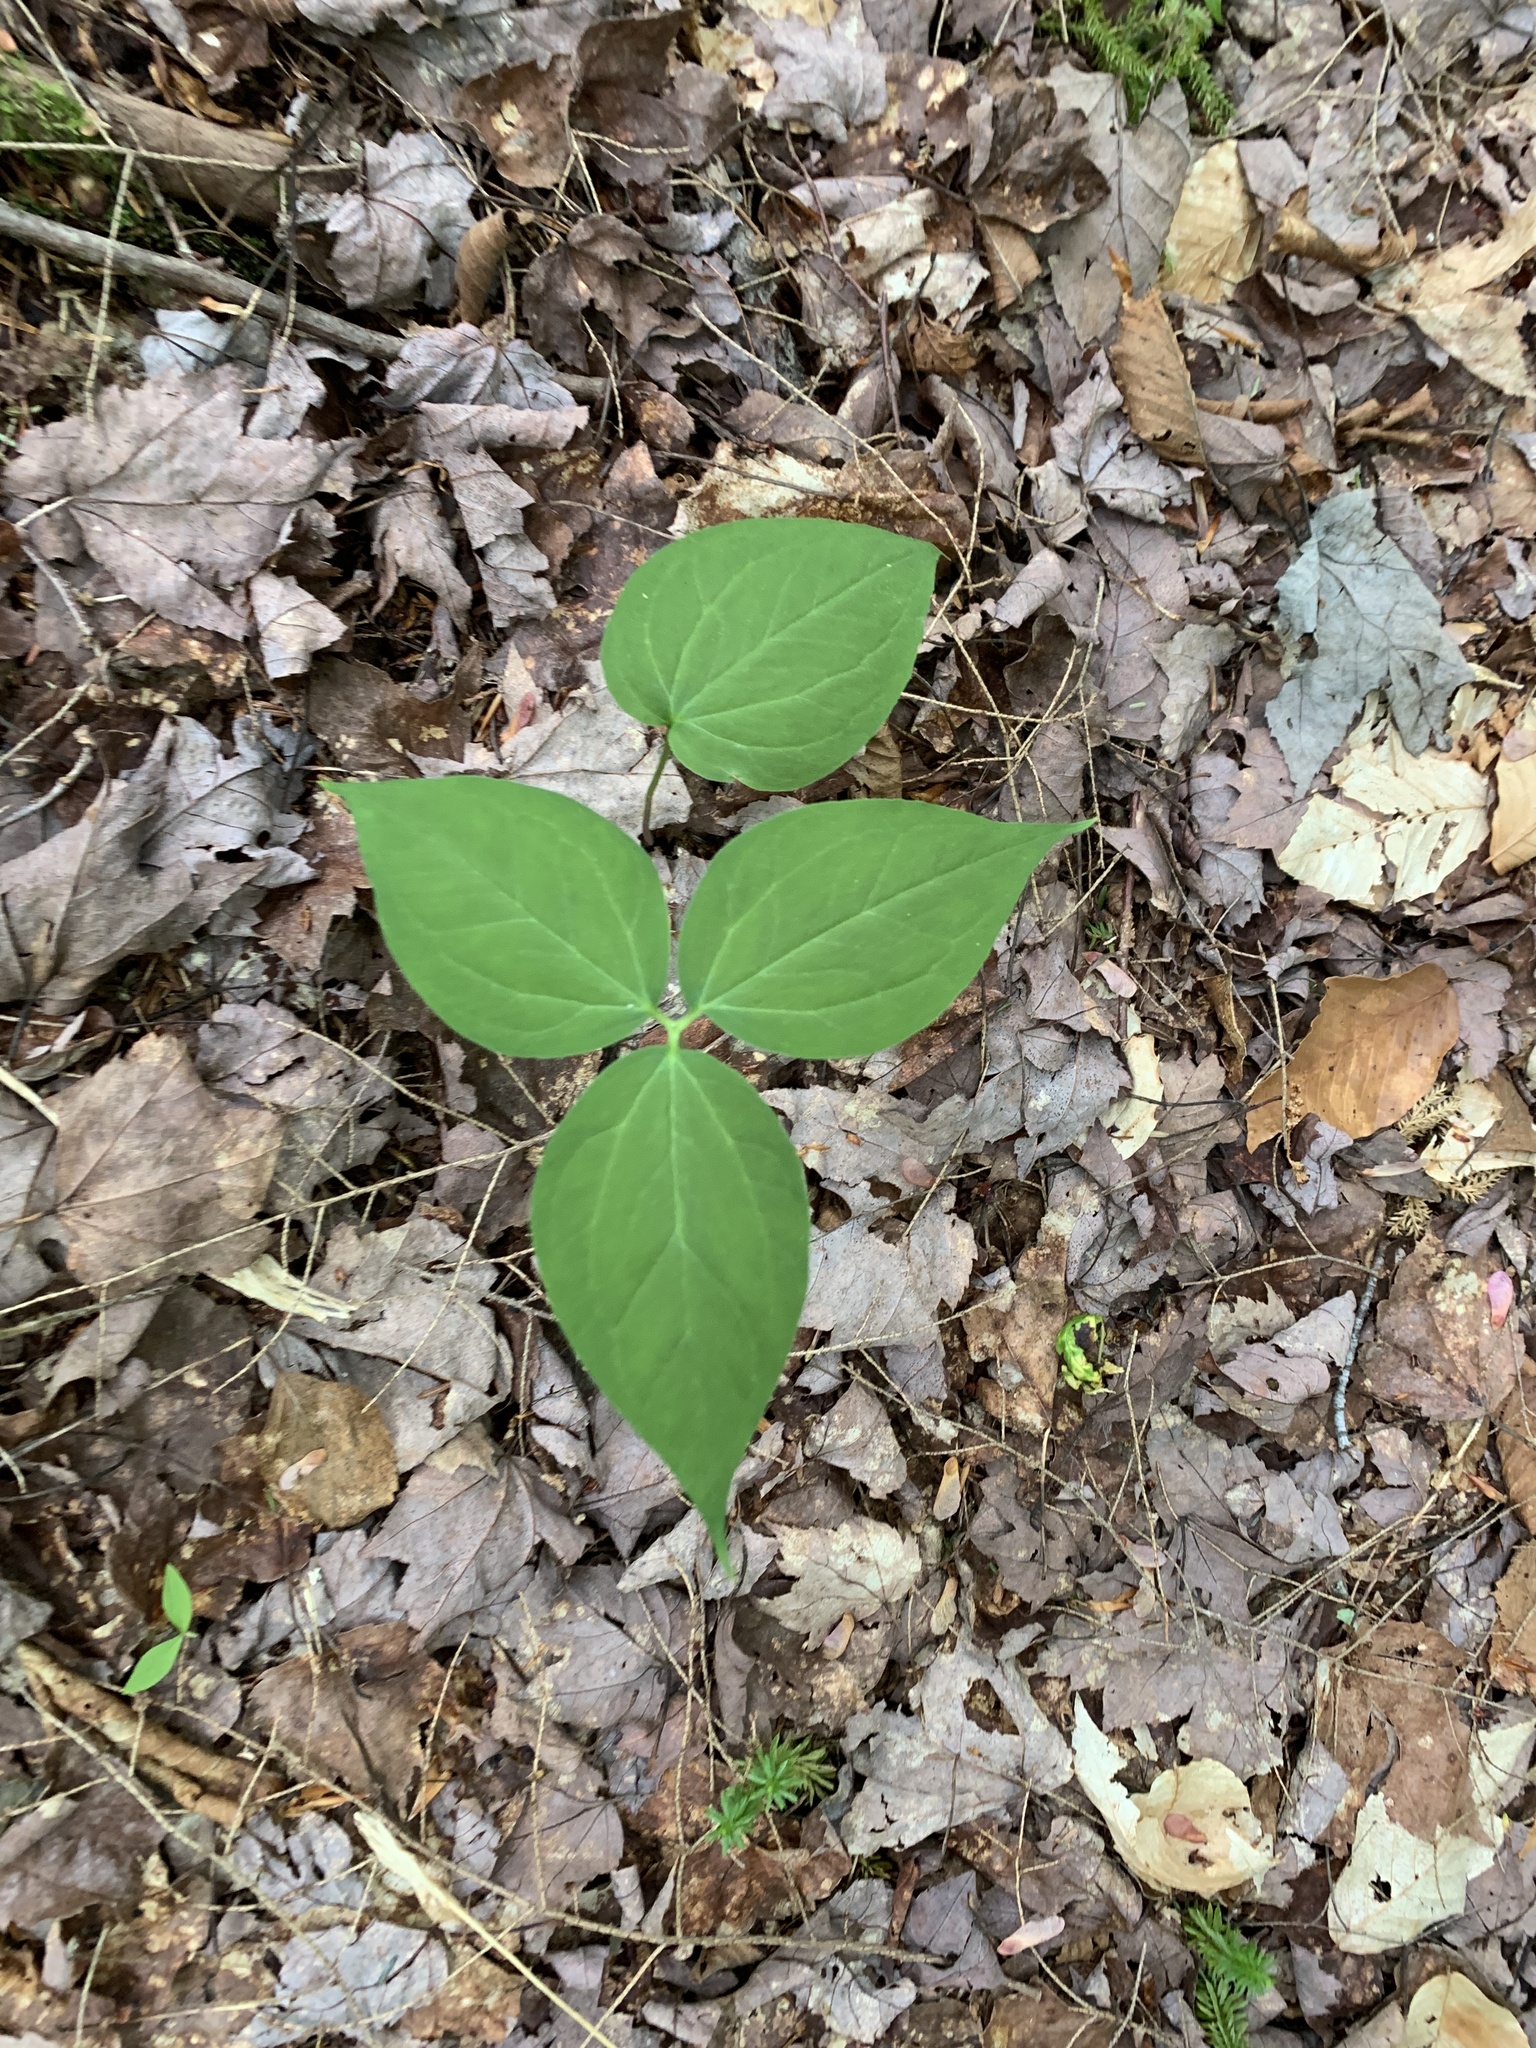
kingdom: Plantae
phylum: Tracheophyta
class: Liliopsida
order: Liliales
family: Melanthiaceae
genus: Trillium
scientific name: Trillium undulatum
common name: Paint trillium
